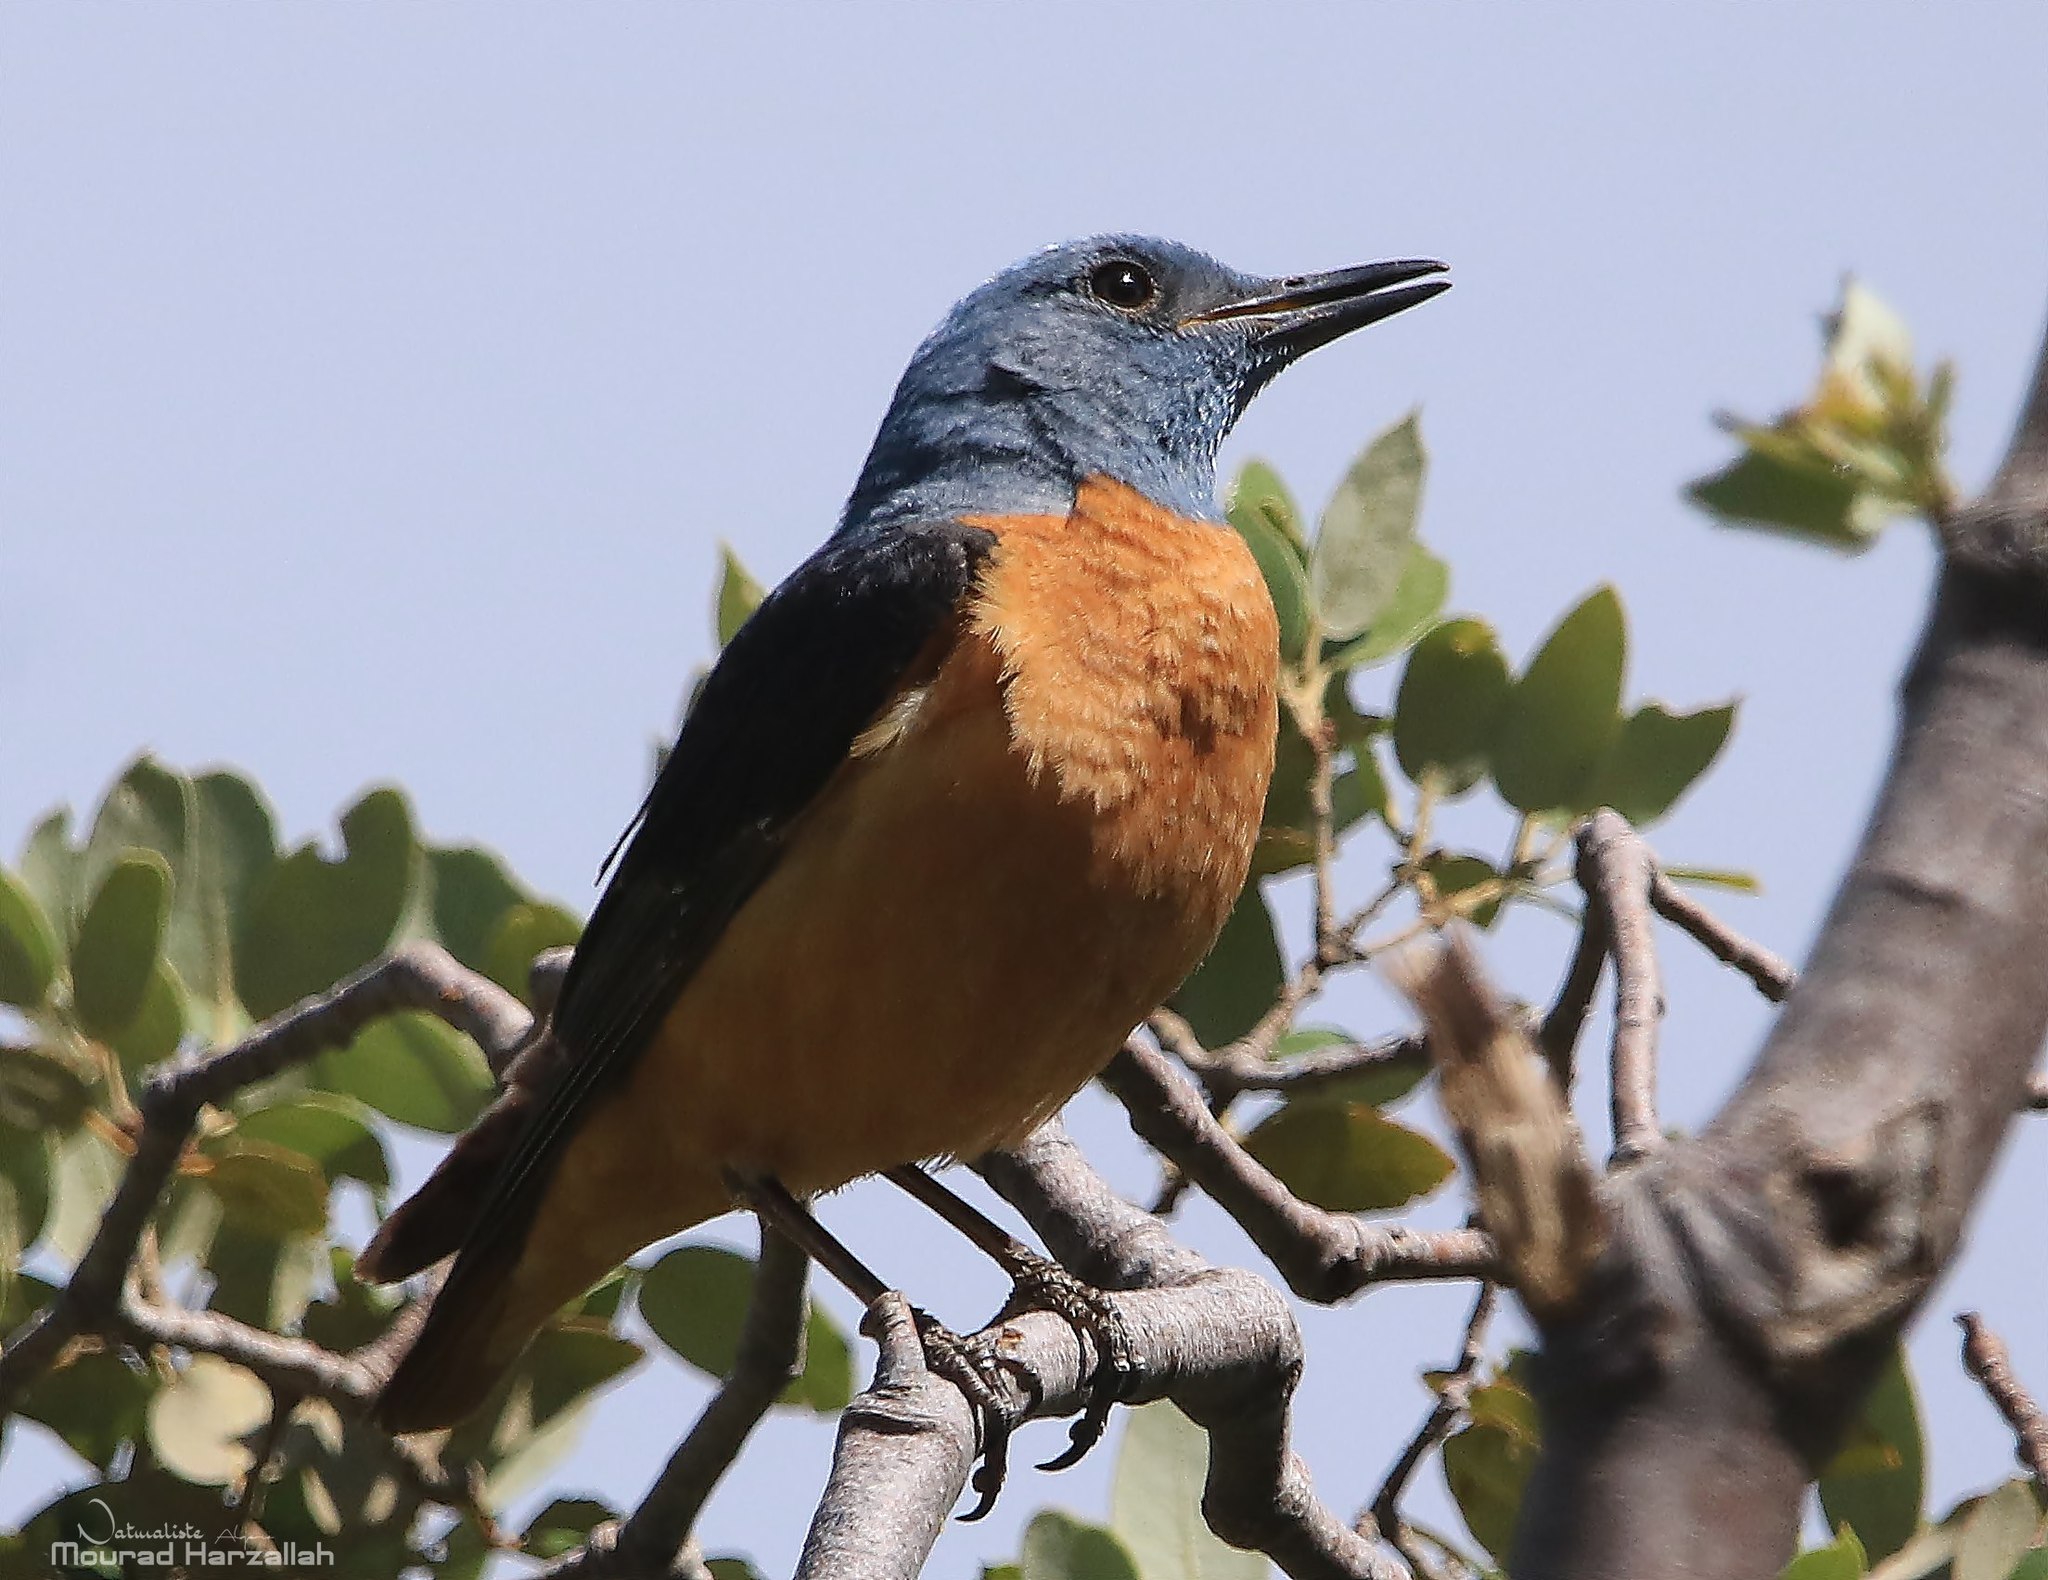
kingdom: Animalia
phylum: Chordata
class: Aves
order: Passeriformes
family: Muscicapidae
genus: Monticola
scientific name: Monticola saxatilis
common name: Rufous-tailed rock thrush
